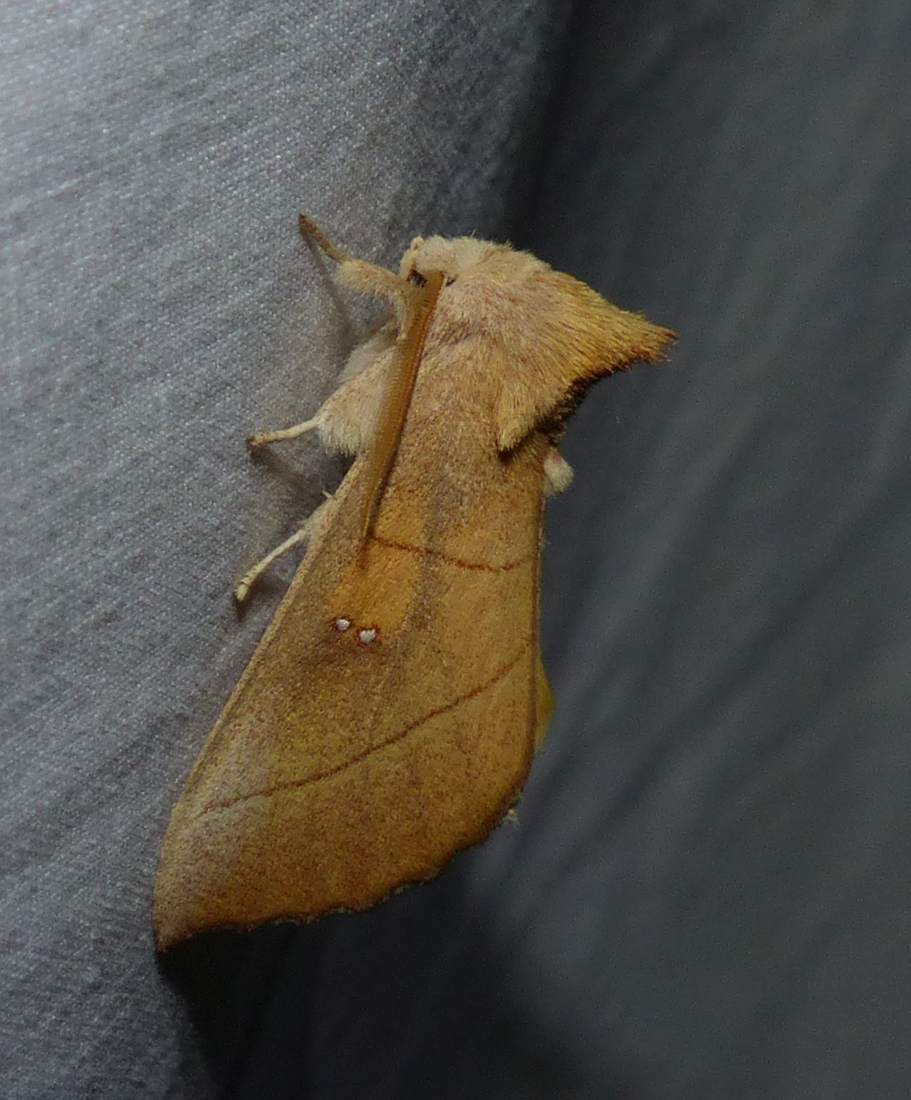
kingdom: Animalia
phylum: Arthropoda
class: Insecta
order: Lepidoptera
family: Notodontidae
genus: Nadata
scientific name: Nadata gibbosa
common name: White-dotted prominent
